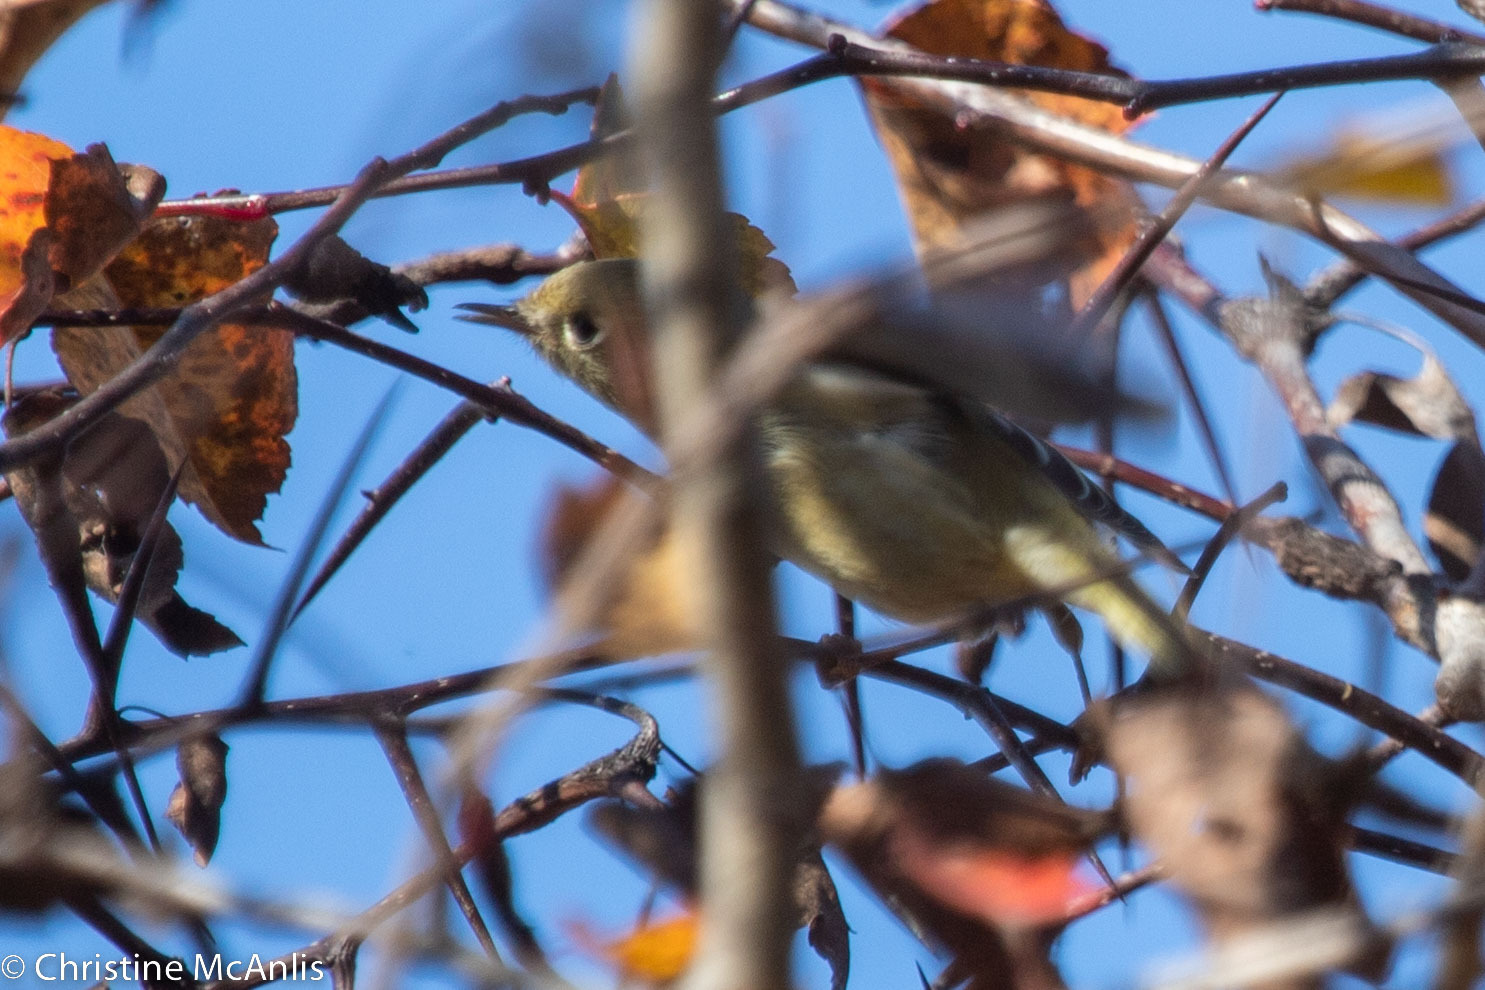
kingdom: Animalia
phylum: Chordata
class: Aves
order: Passeriformes
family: Regulidae
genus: Regulus
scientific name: Regulus calendula
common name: Ruby-crowned kinglet
